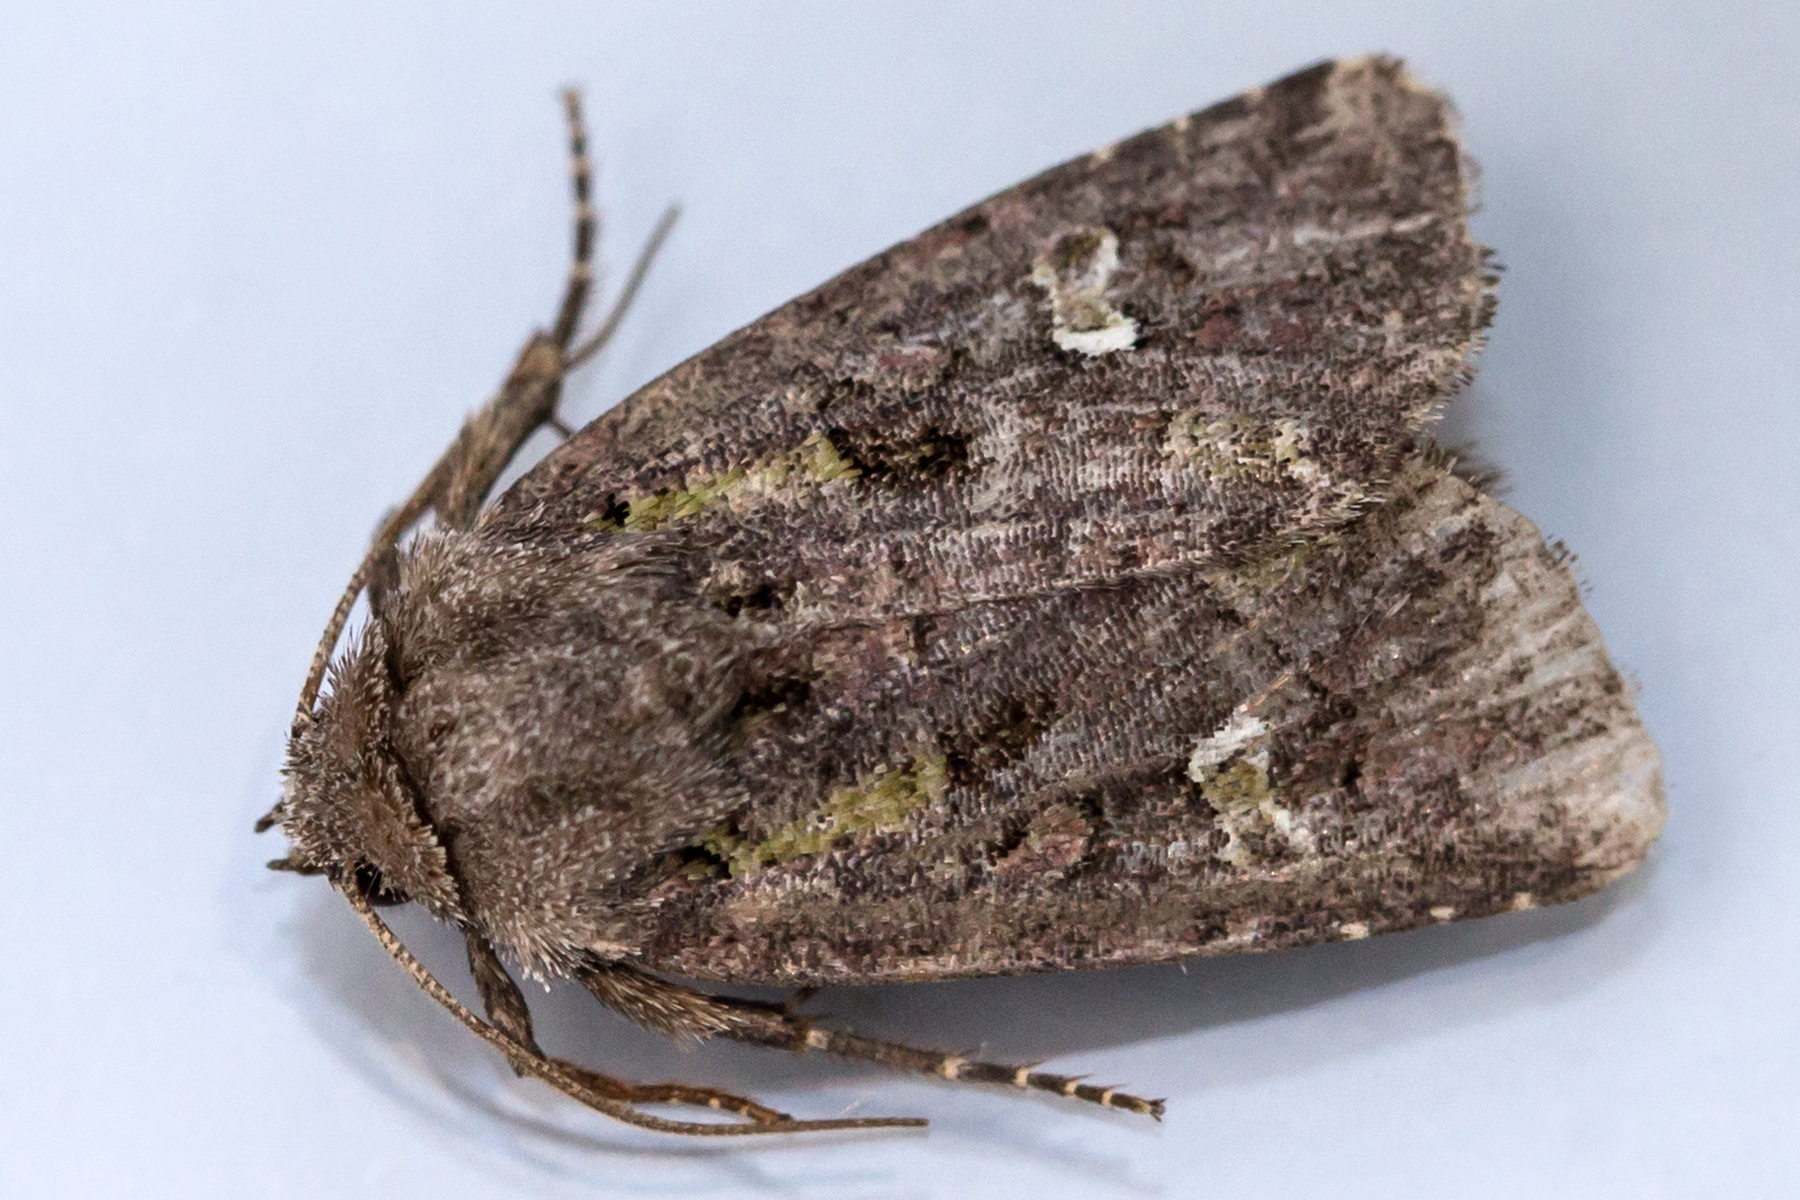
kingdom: Animalia
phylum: Arthropoda
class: Insecta
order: Lepidoptera
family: Noctuidae
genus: Lacinipolia
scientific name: Lacinipolia renigera
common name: Kidney-spotted minor
